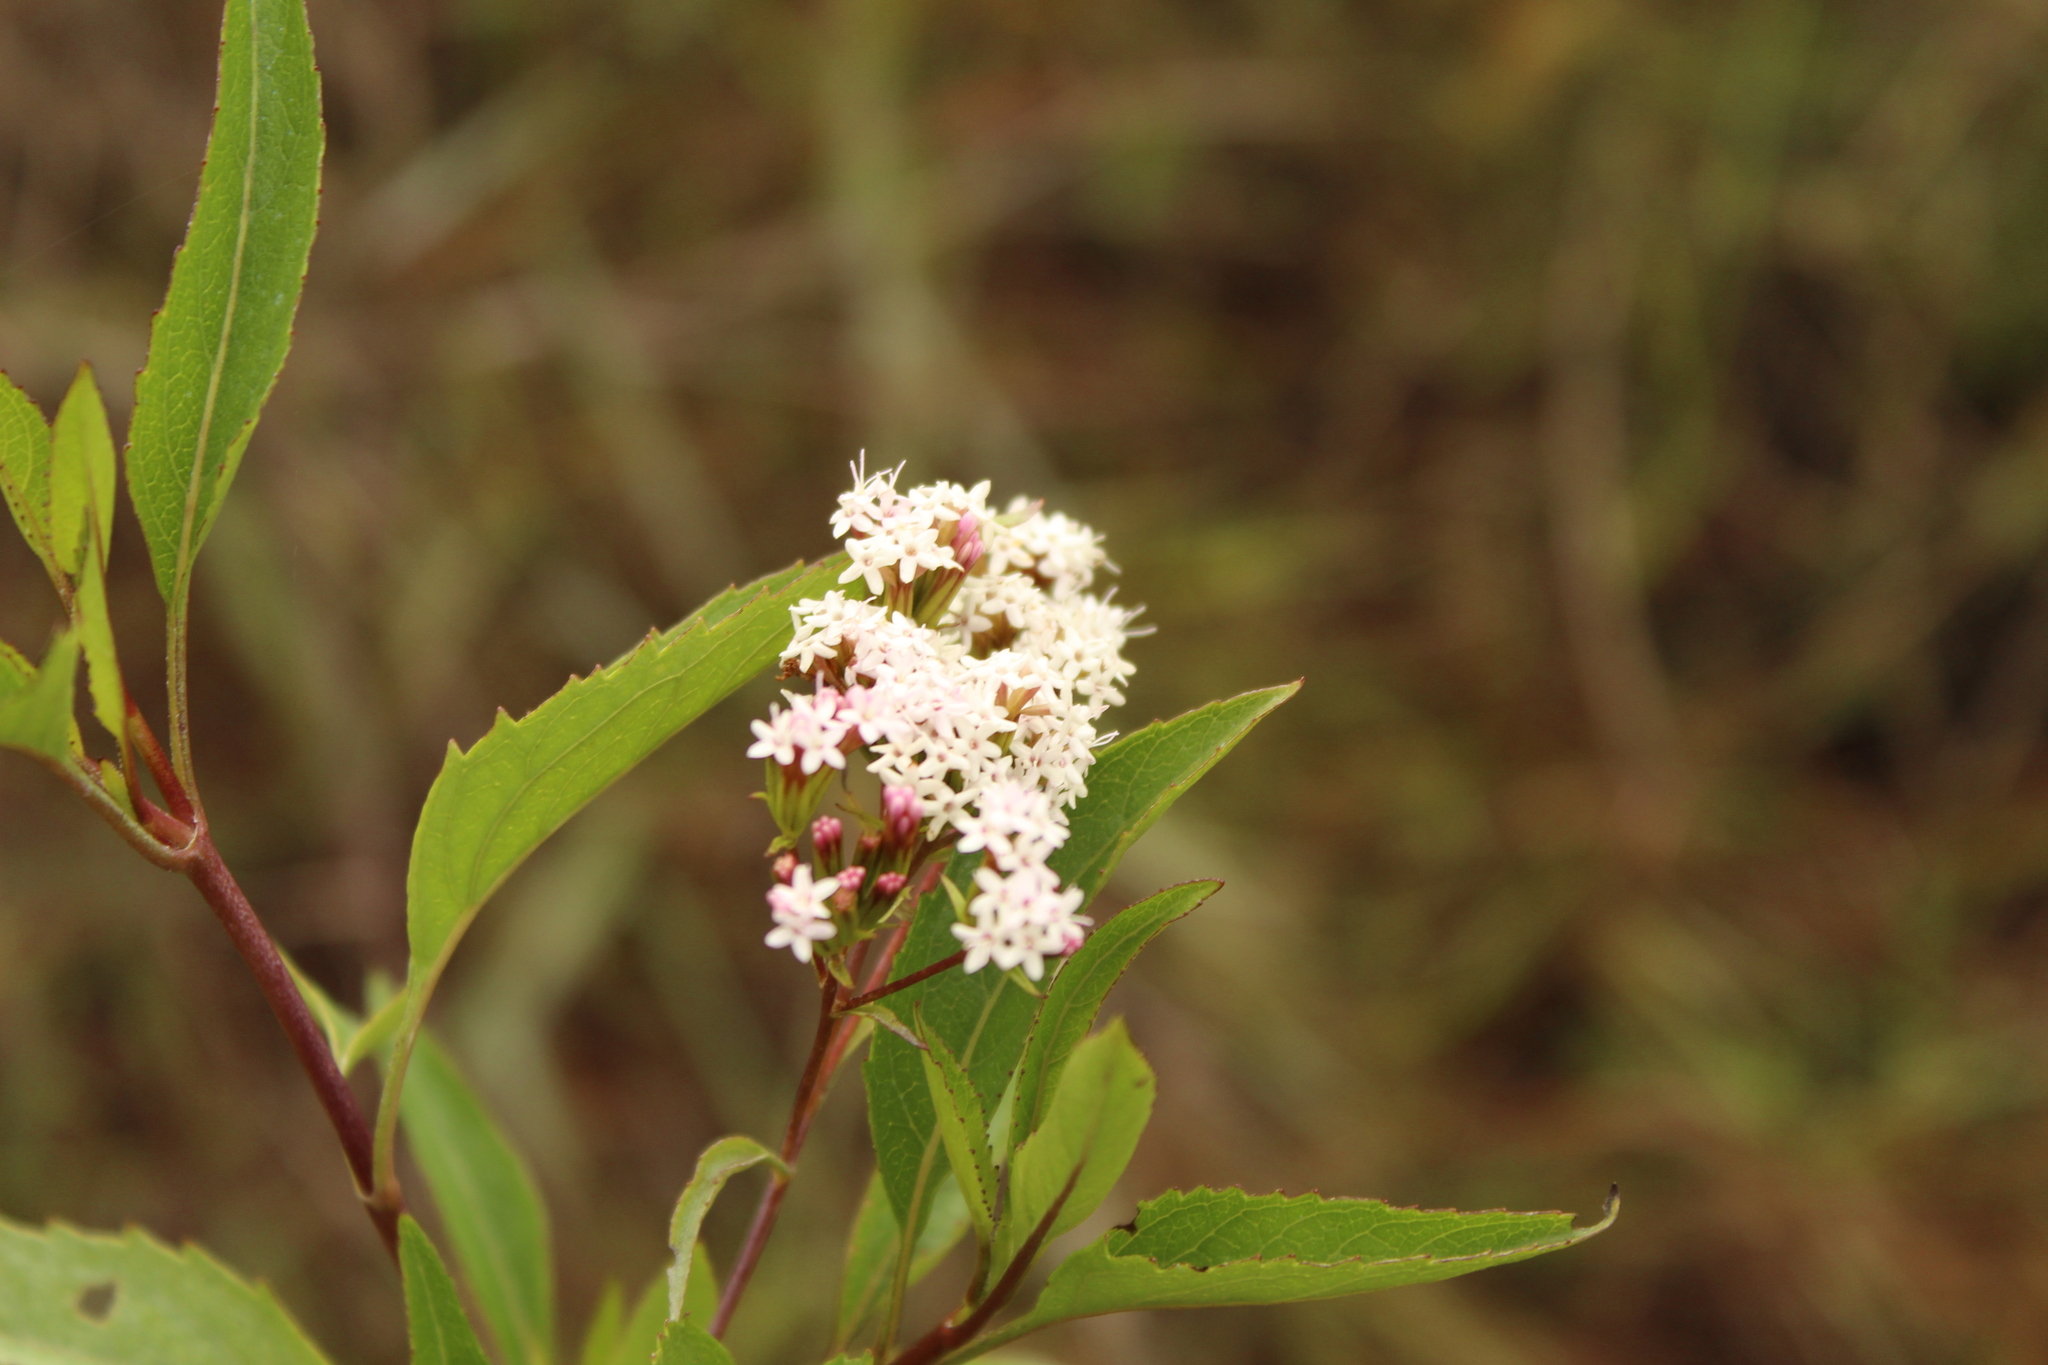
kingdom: Plantae
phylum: Tracheophyta
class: Magnoliopsida
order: Asterales
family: Asteraceae
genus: Stevia
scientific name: Stevia lucida
